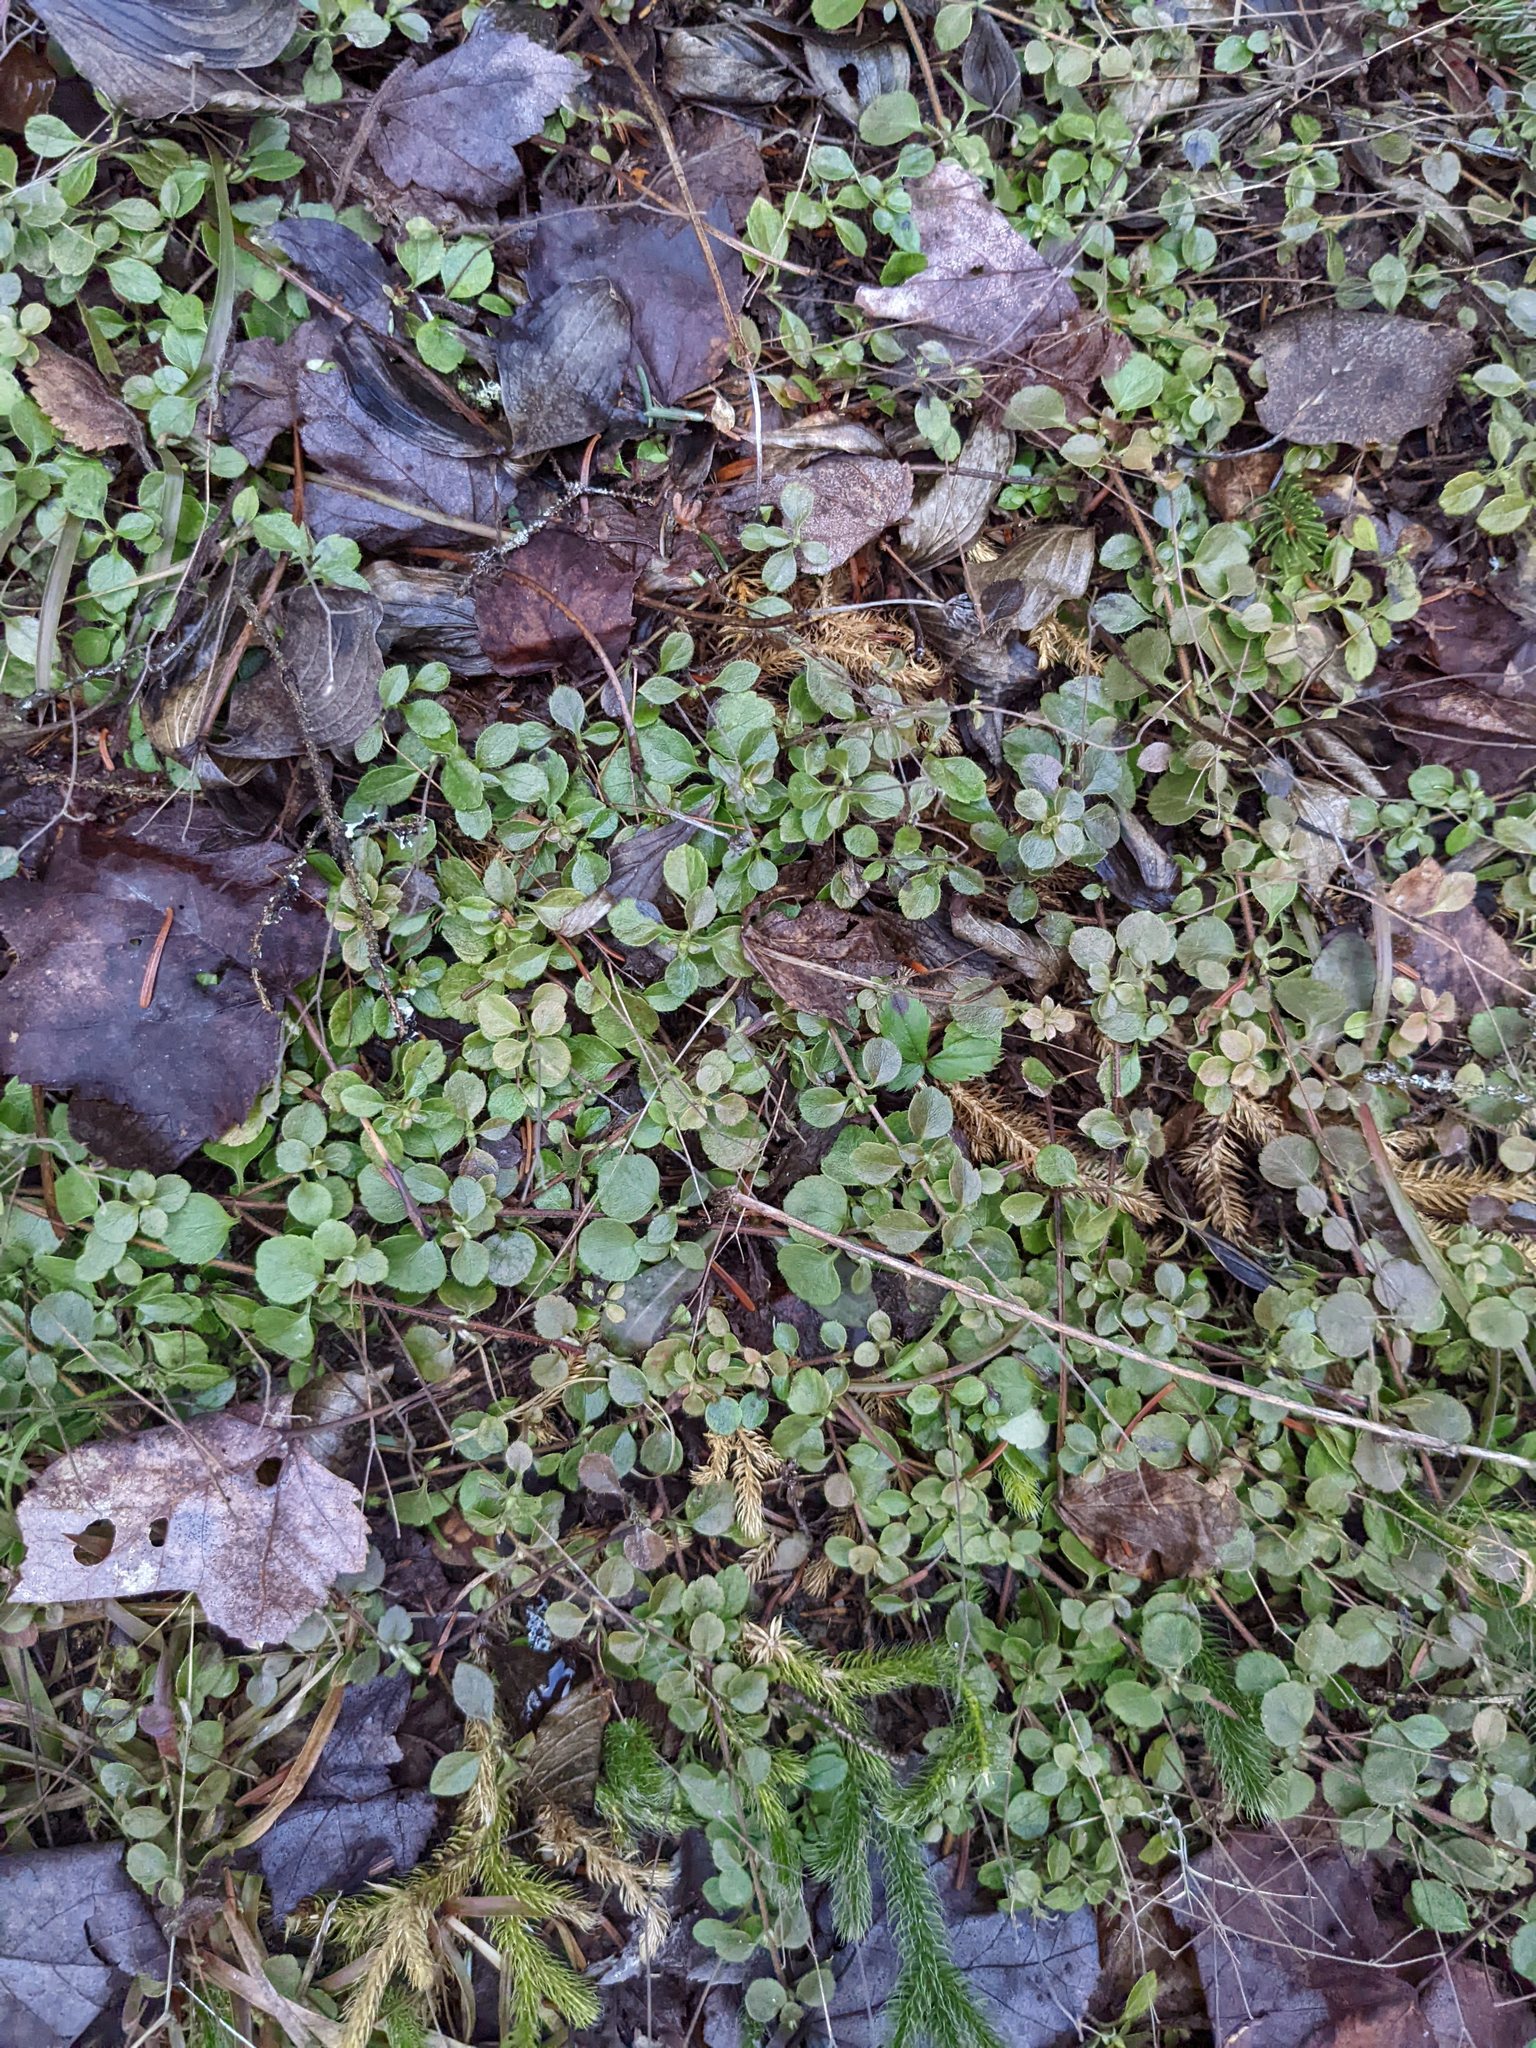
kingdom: Plantae
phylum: Tracheophyta
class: Magnoliopsida
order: Dipsacales
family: Caprifoliaceae
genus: Linnaea
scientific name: Linnaea borealis
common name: Twinflower
